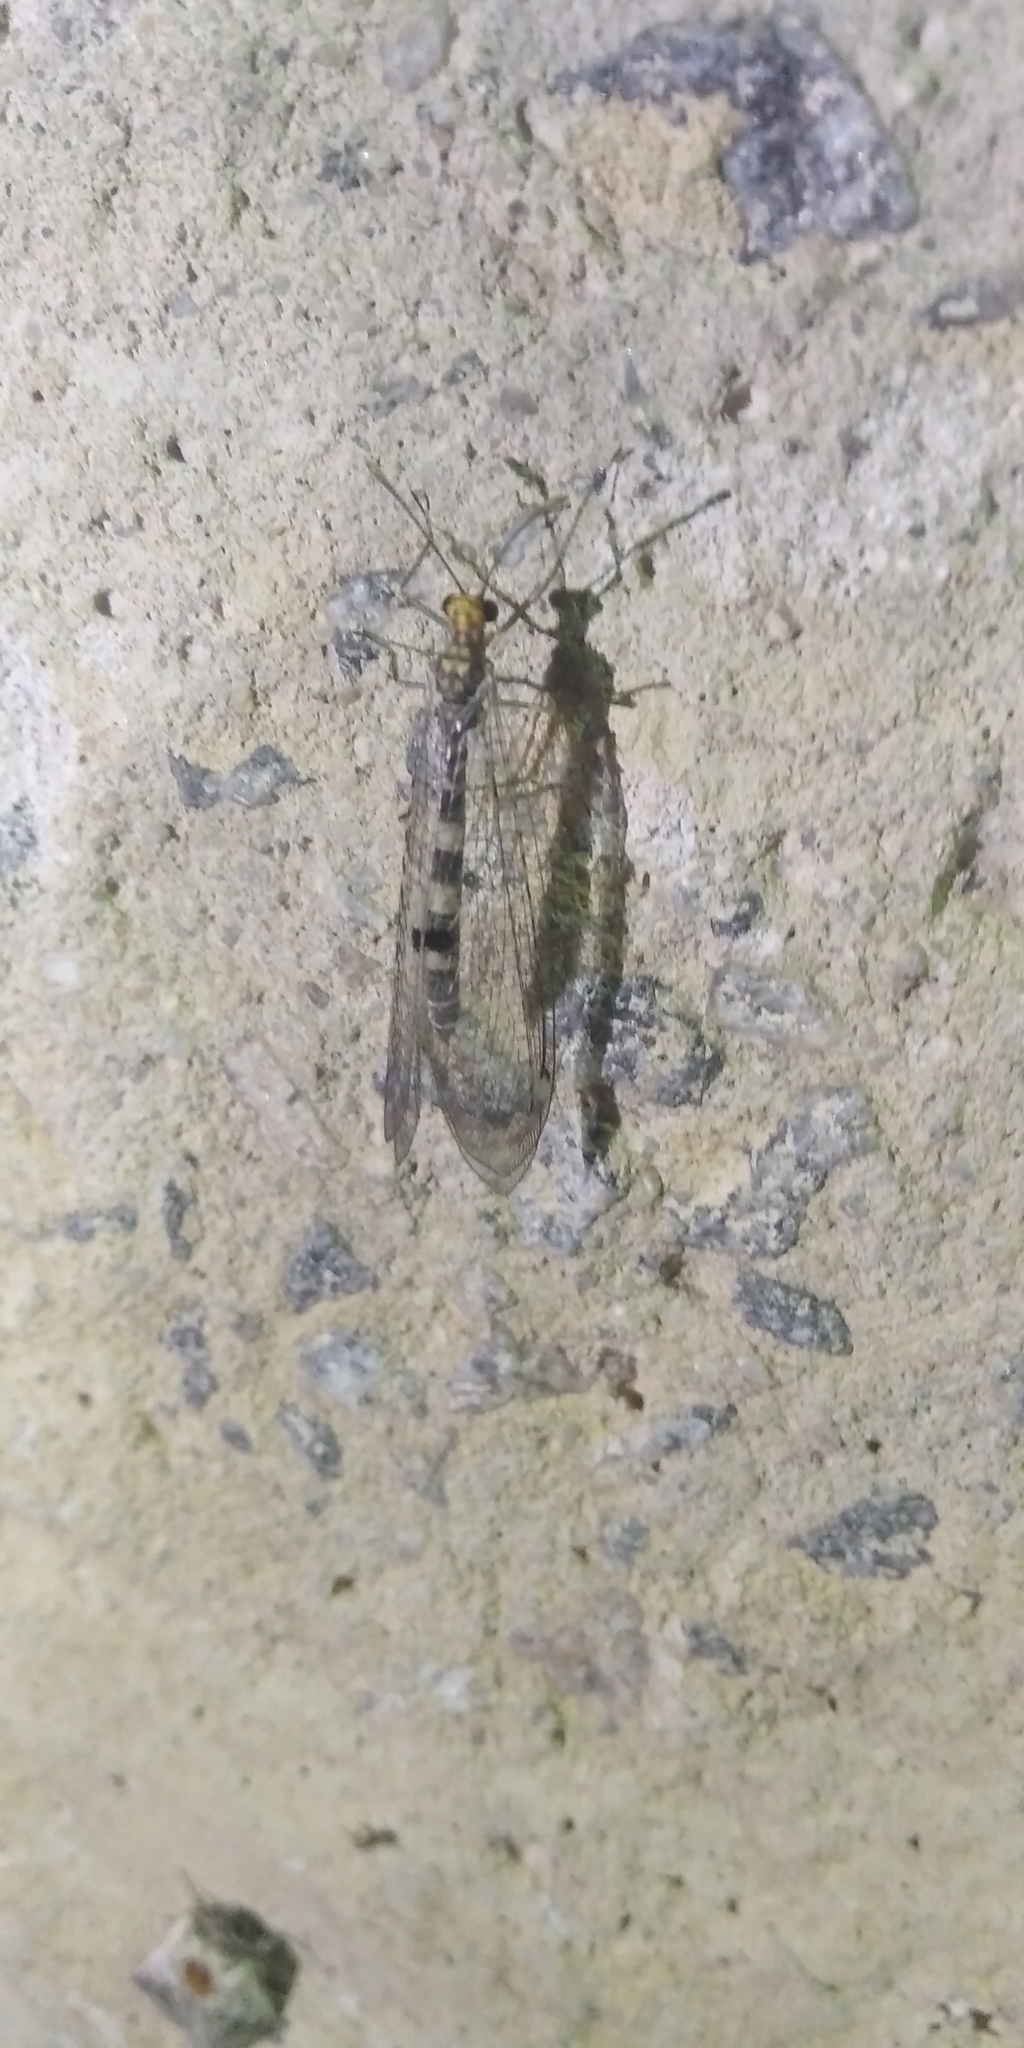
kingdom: Animalia
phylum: Arthropoda
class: Insecta
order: Neuroptera
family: Myrmeleontidae
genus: Megistopus
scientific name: Megistopus flavicornis
